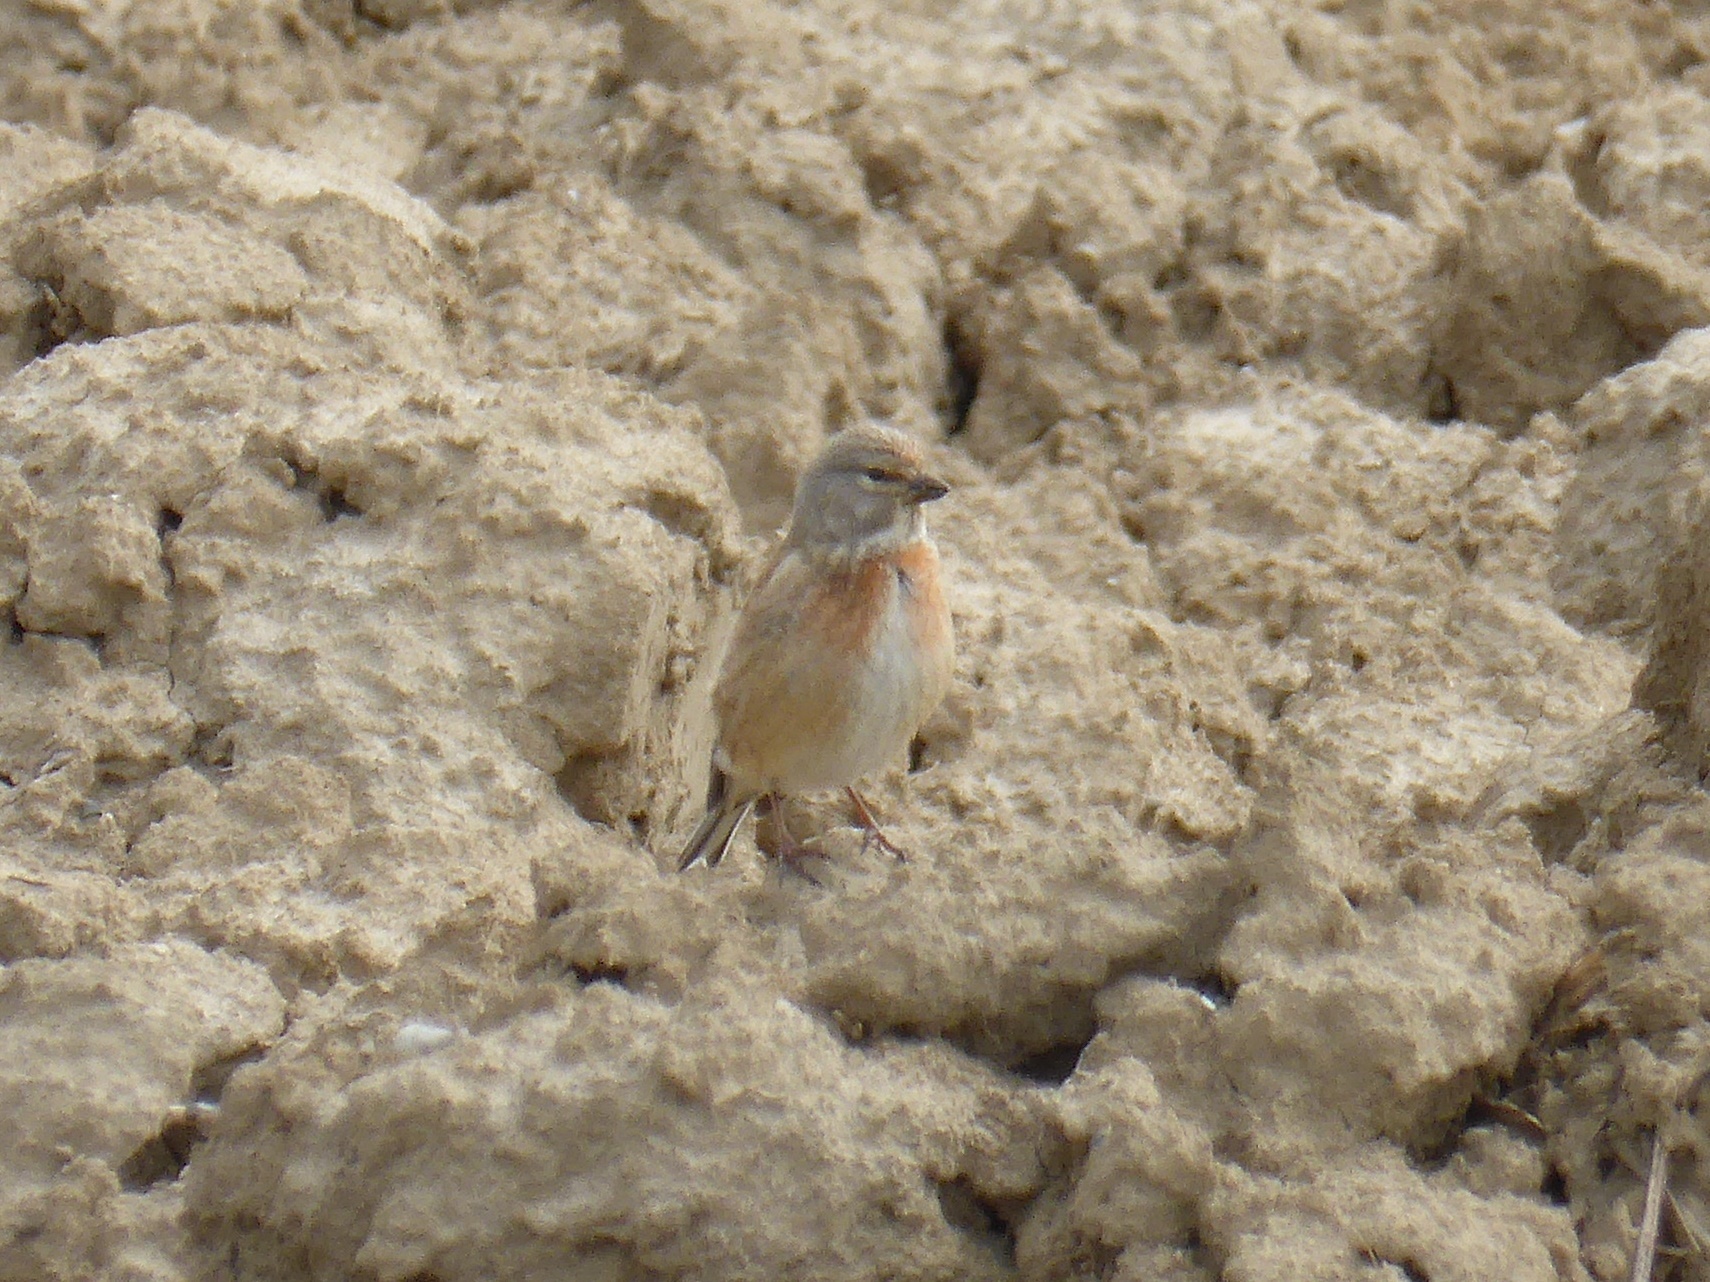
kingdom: Animalia
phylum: Chordata
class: Aves
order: Passeriformes
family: Fringillidae
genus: Linaria
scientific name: Linaria cannabina
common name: Common linnet
